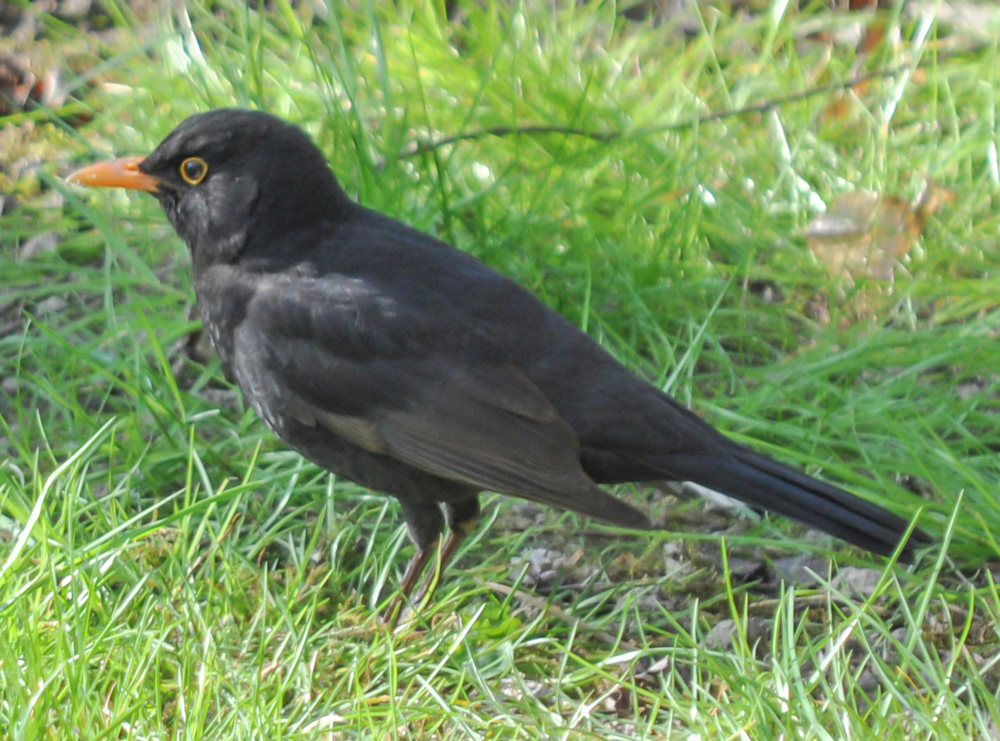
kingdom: Animalia
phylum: Chordata
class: Aves
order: Passeriformes
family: Turdidae
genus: Turdus
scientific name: Turdus merula
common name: Common blackbird
